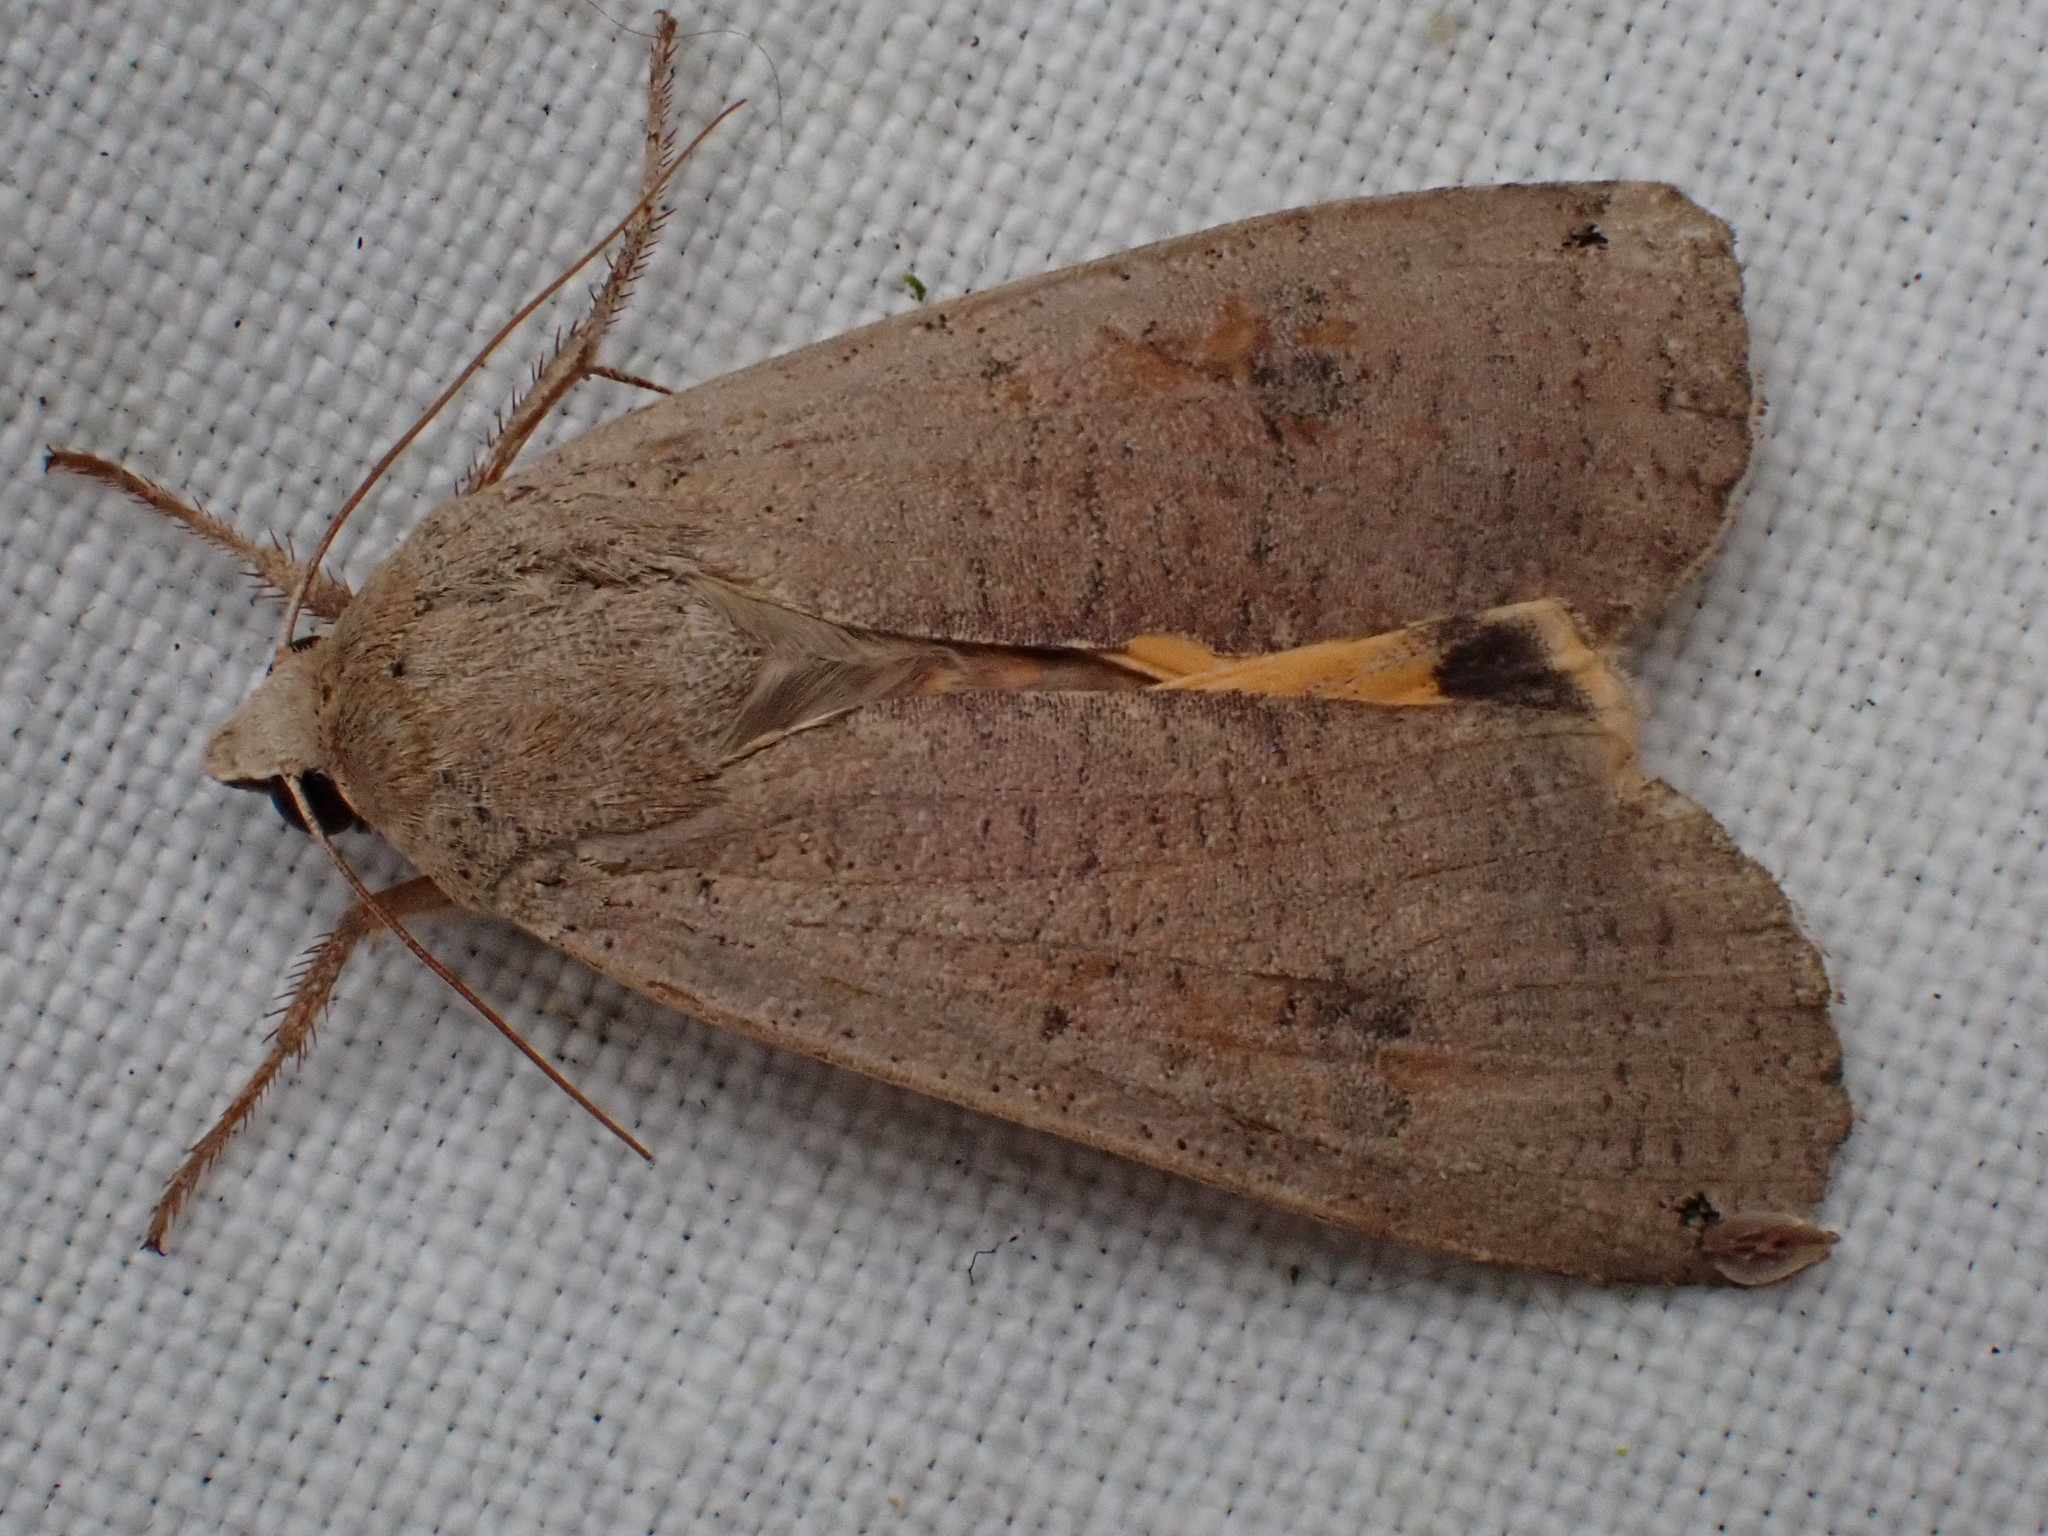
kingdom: Animalia
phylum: Arthropoda
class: Insecta
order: Lepidoptera
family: Noctuidae
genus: Noctua
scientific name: Noctua pronuba
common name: Large yellow underwing
